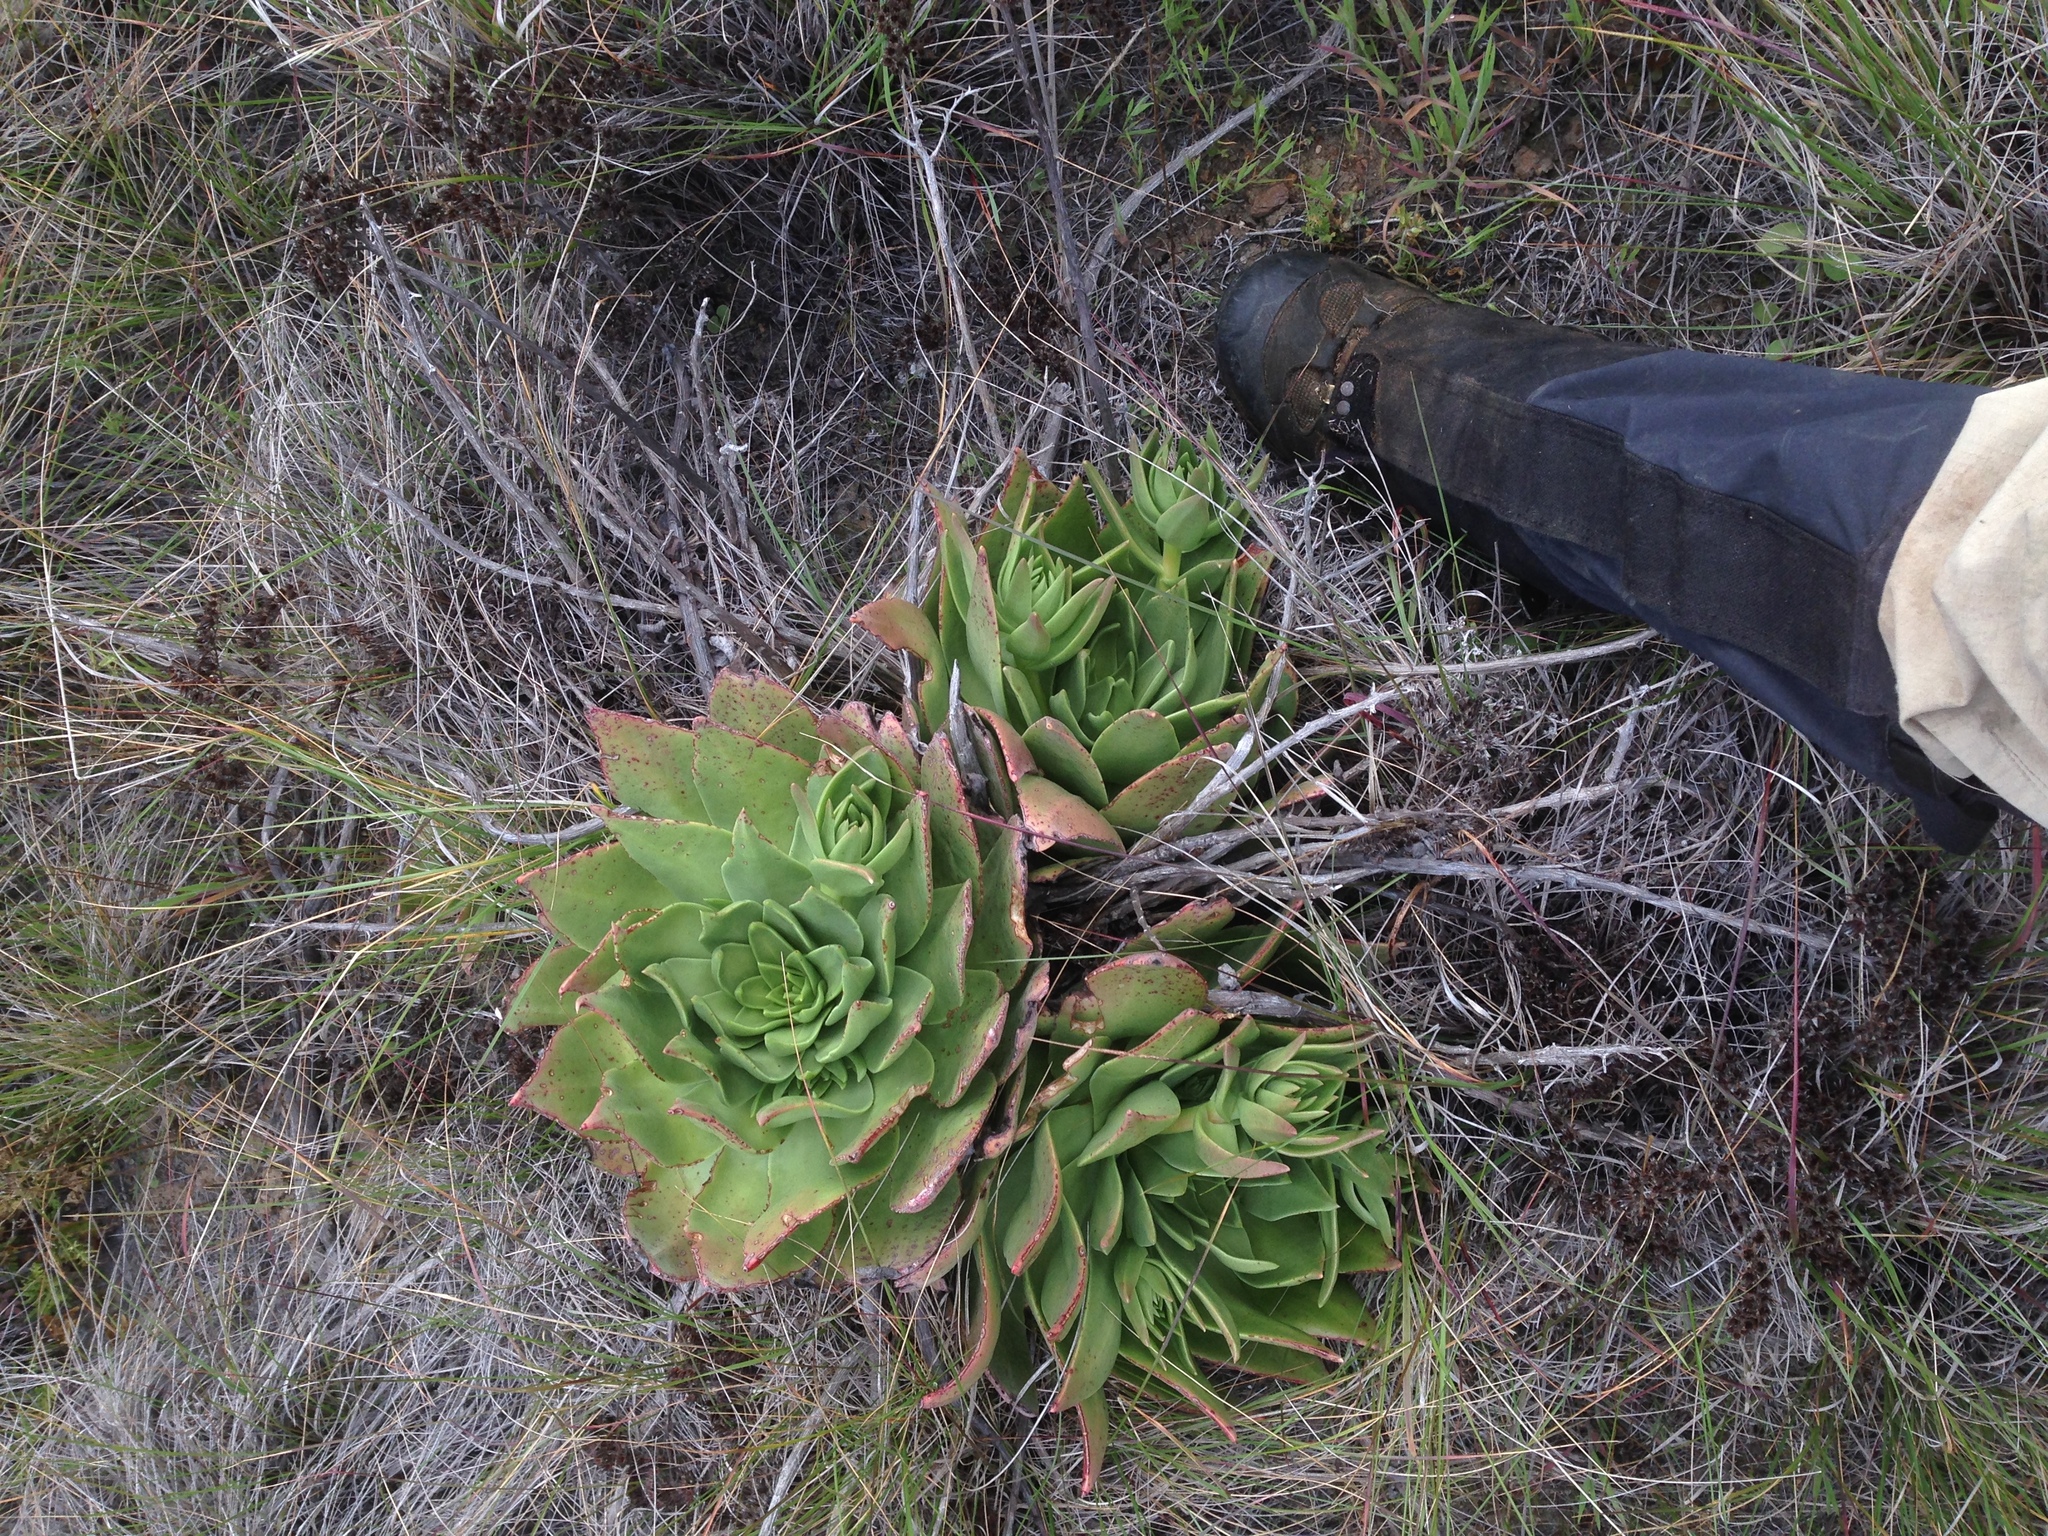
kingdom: Plantae
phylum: Tracheophyta
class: Magnoliopsida
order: Saxifragales
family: Crassulaceae
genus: Dudleya
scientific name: Dudleya candelabrum
